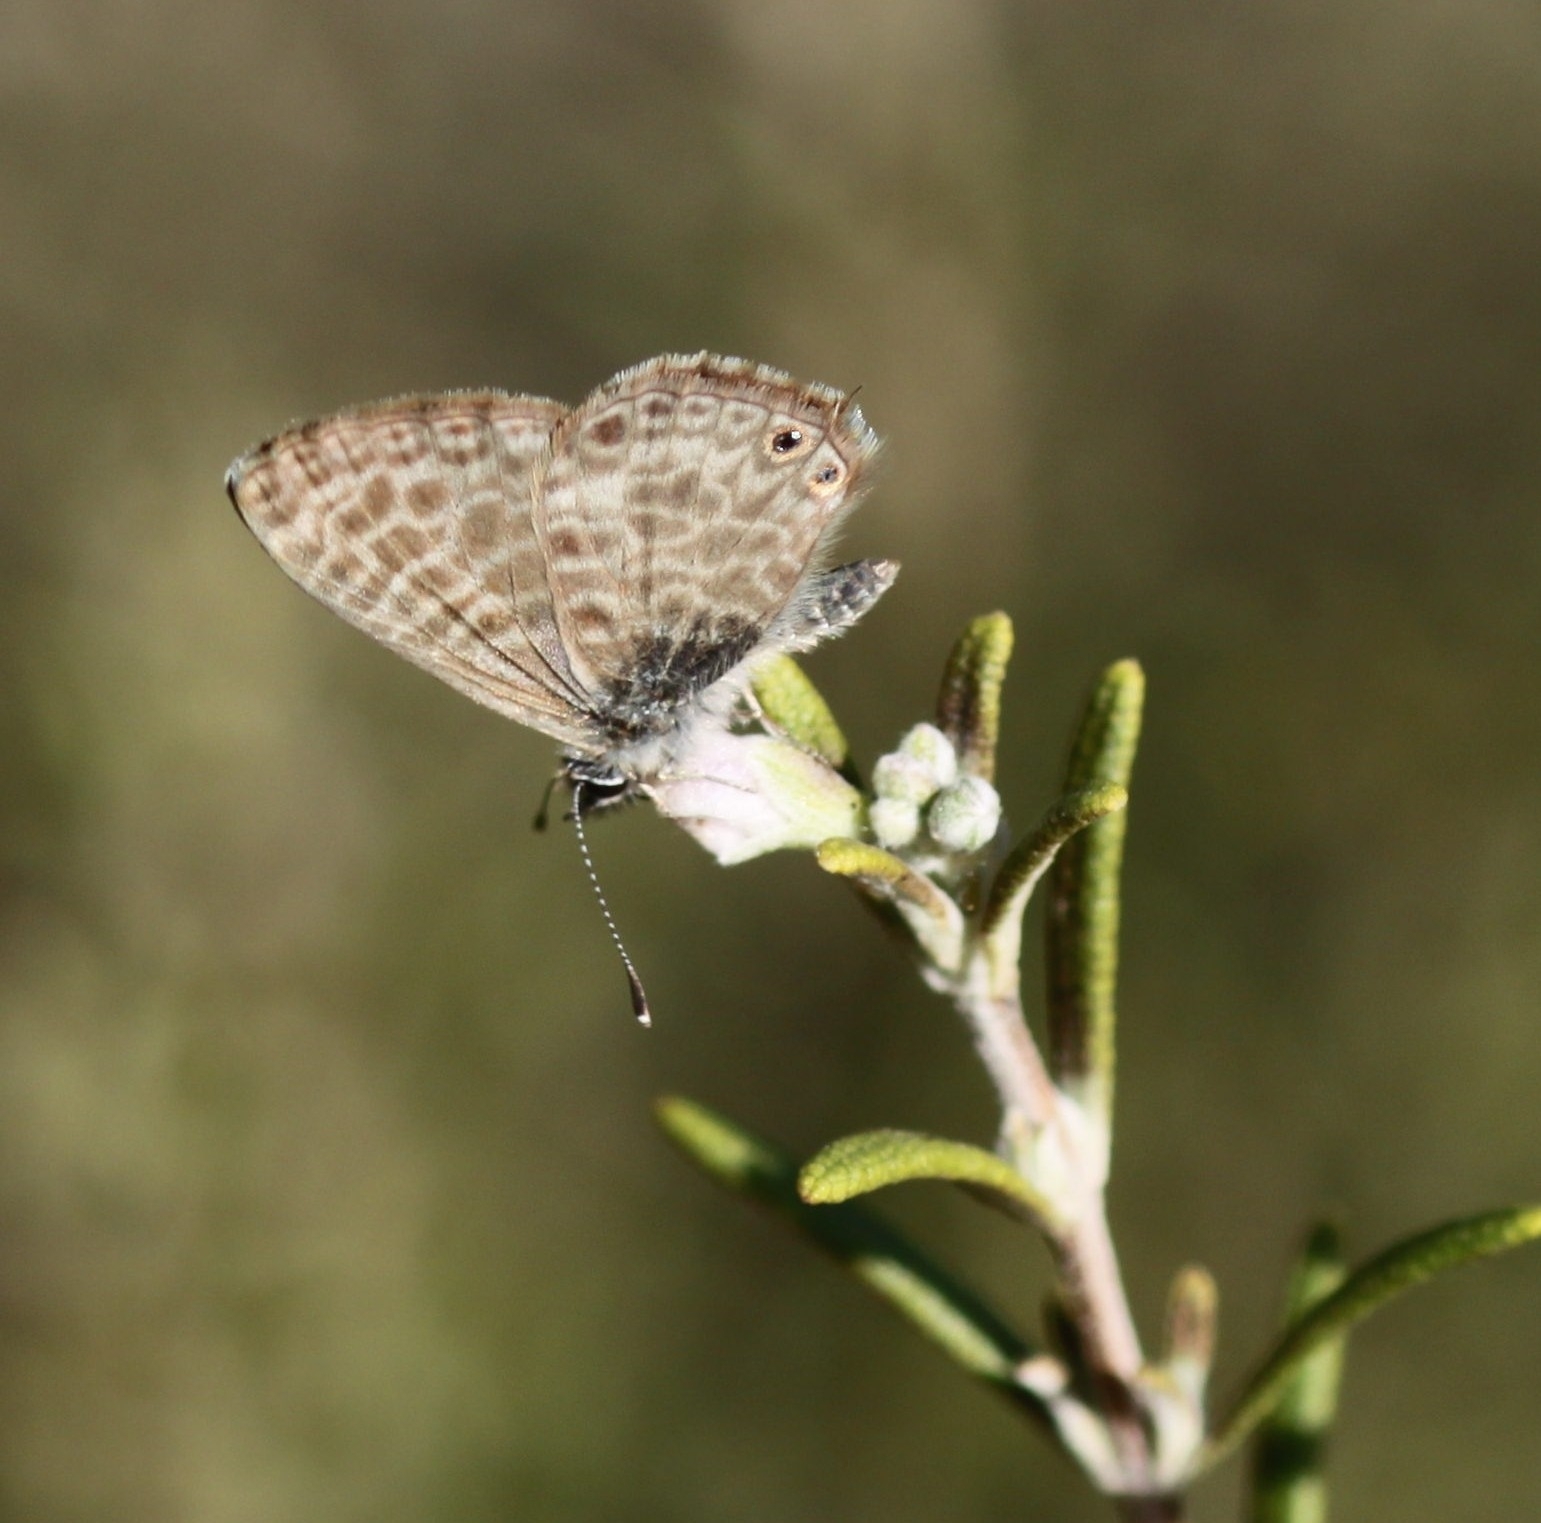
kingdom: Animalia
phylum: Arthropoda
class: Insecta
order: Lepidoptera
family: Lycaenidae
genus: Leptotes
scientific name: Leptotes pirithous
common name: Lang's short-tailed blue
